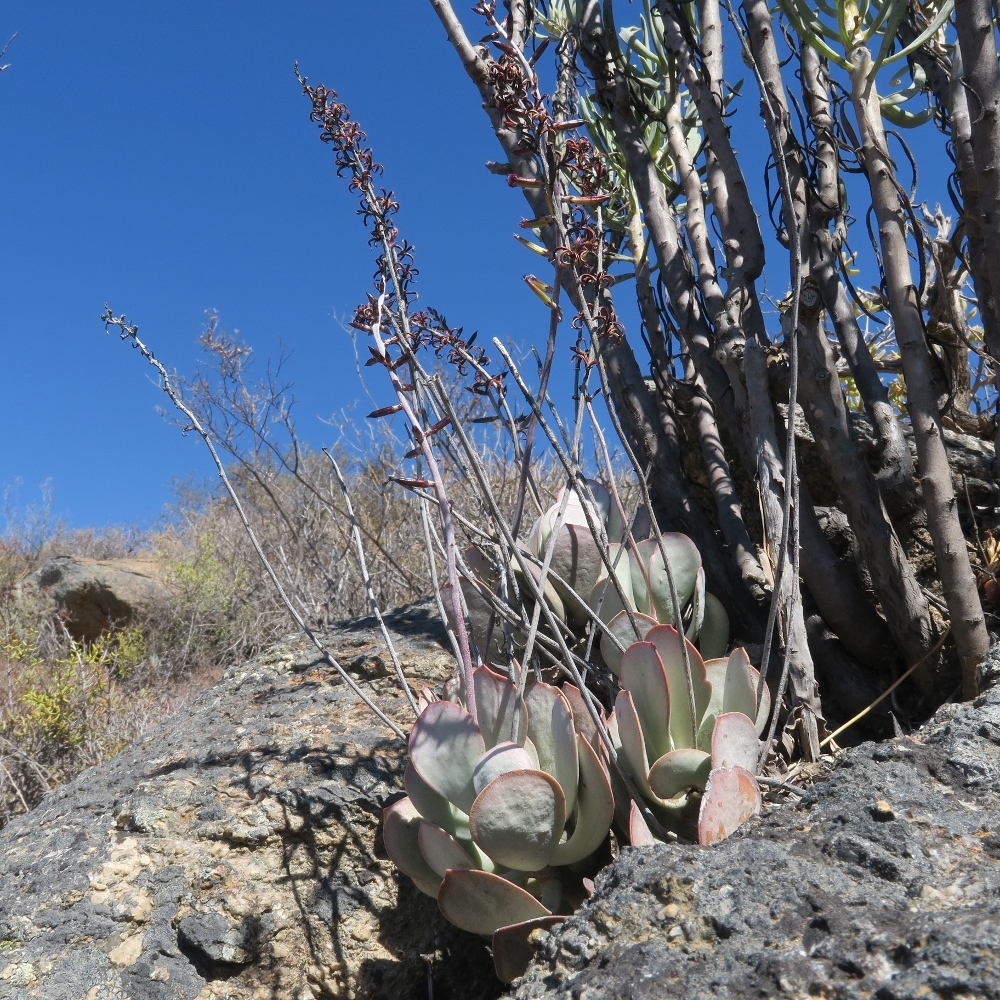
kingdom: Plantae
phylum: Tracheophyta
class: Magnoliopsida
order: Saxifragales
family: Crassulaceae
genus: Adromischus
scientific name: Adromischus alstonii
